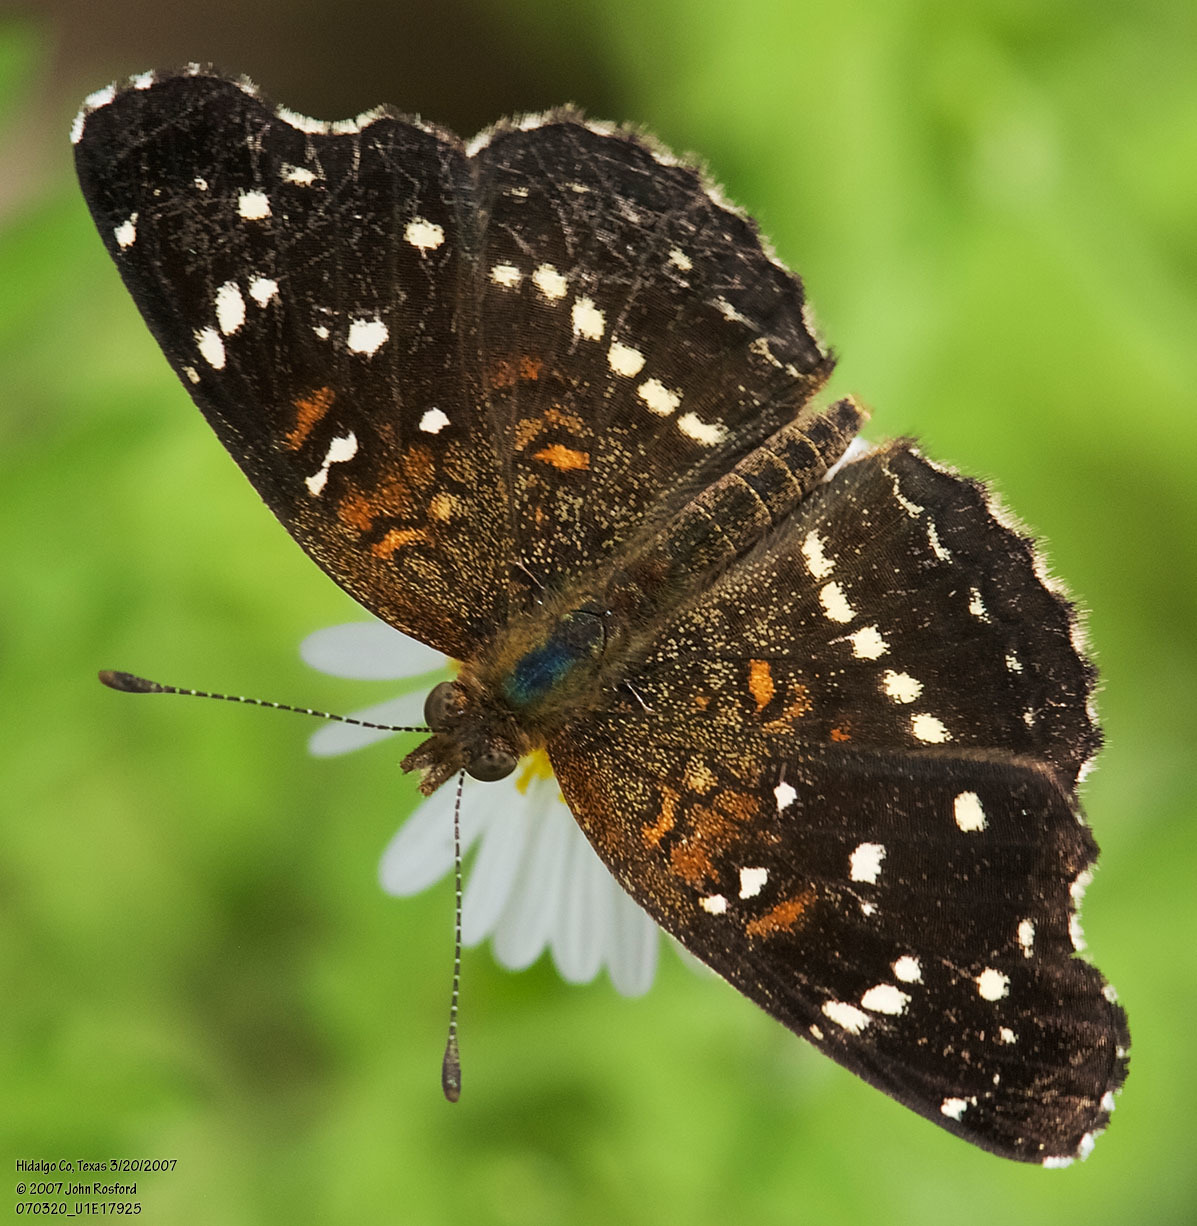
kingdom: Animalia
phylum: Arthropoda
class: Insecta
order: Lepidoptera
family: Nymphalidae
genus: Anthanassa
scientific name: Anthanassa texana
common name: Texan crescent
